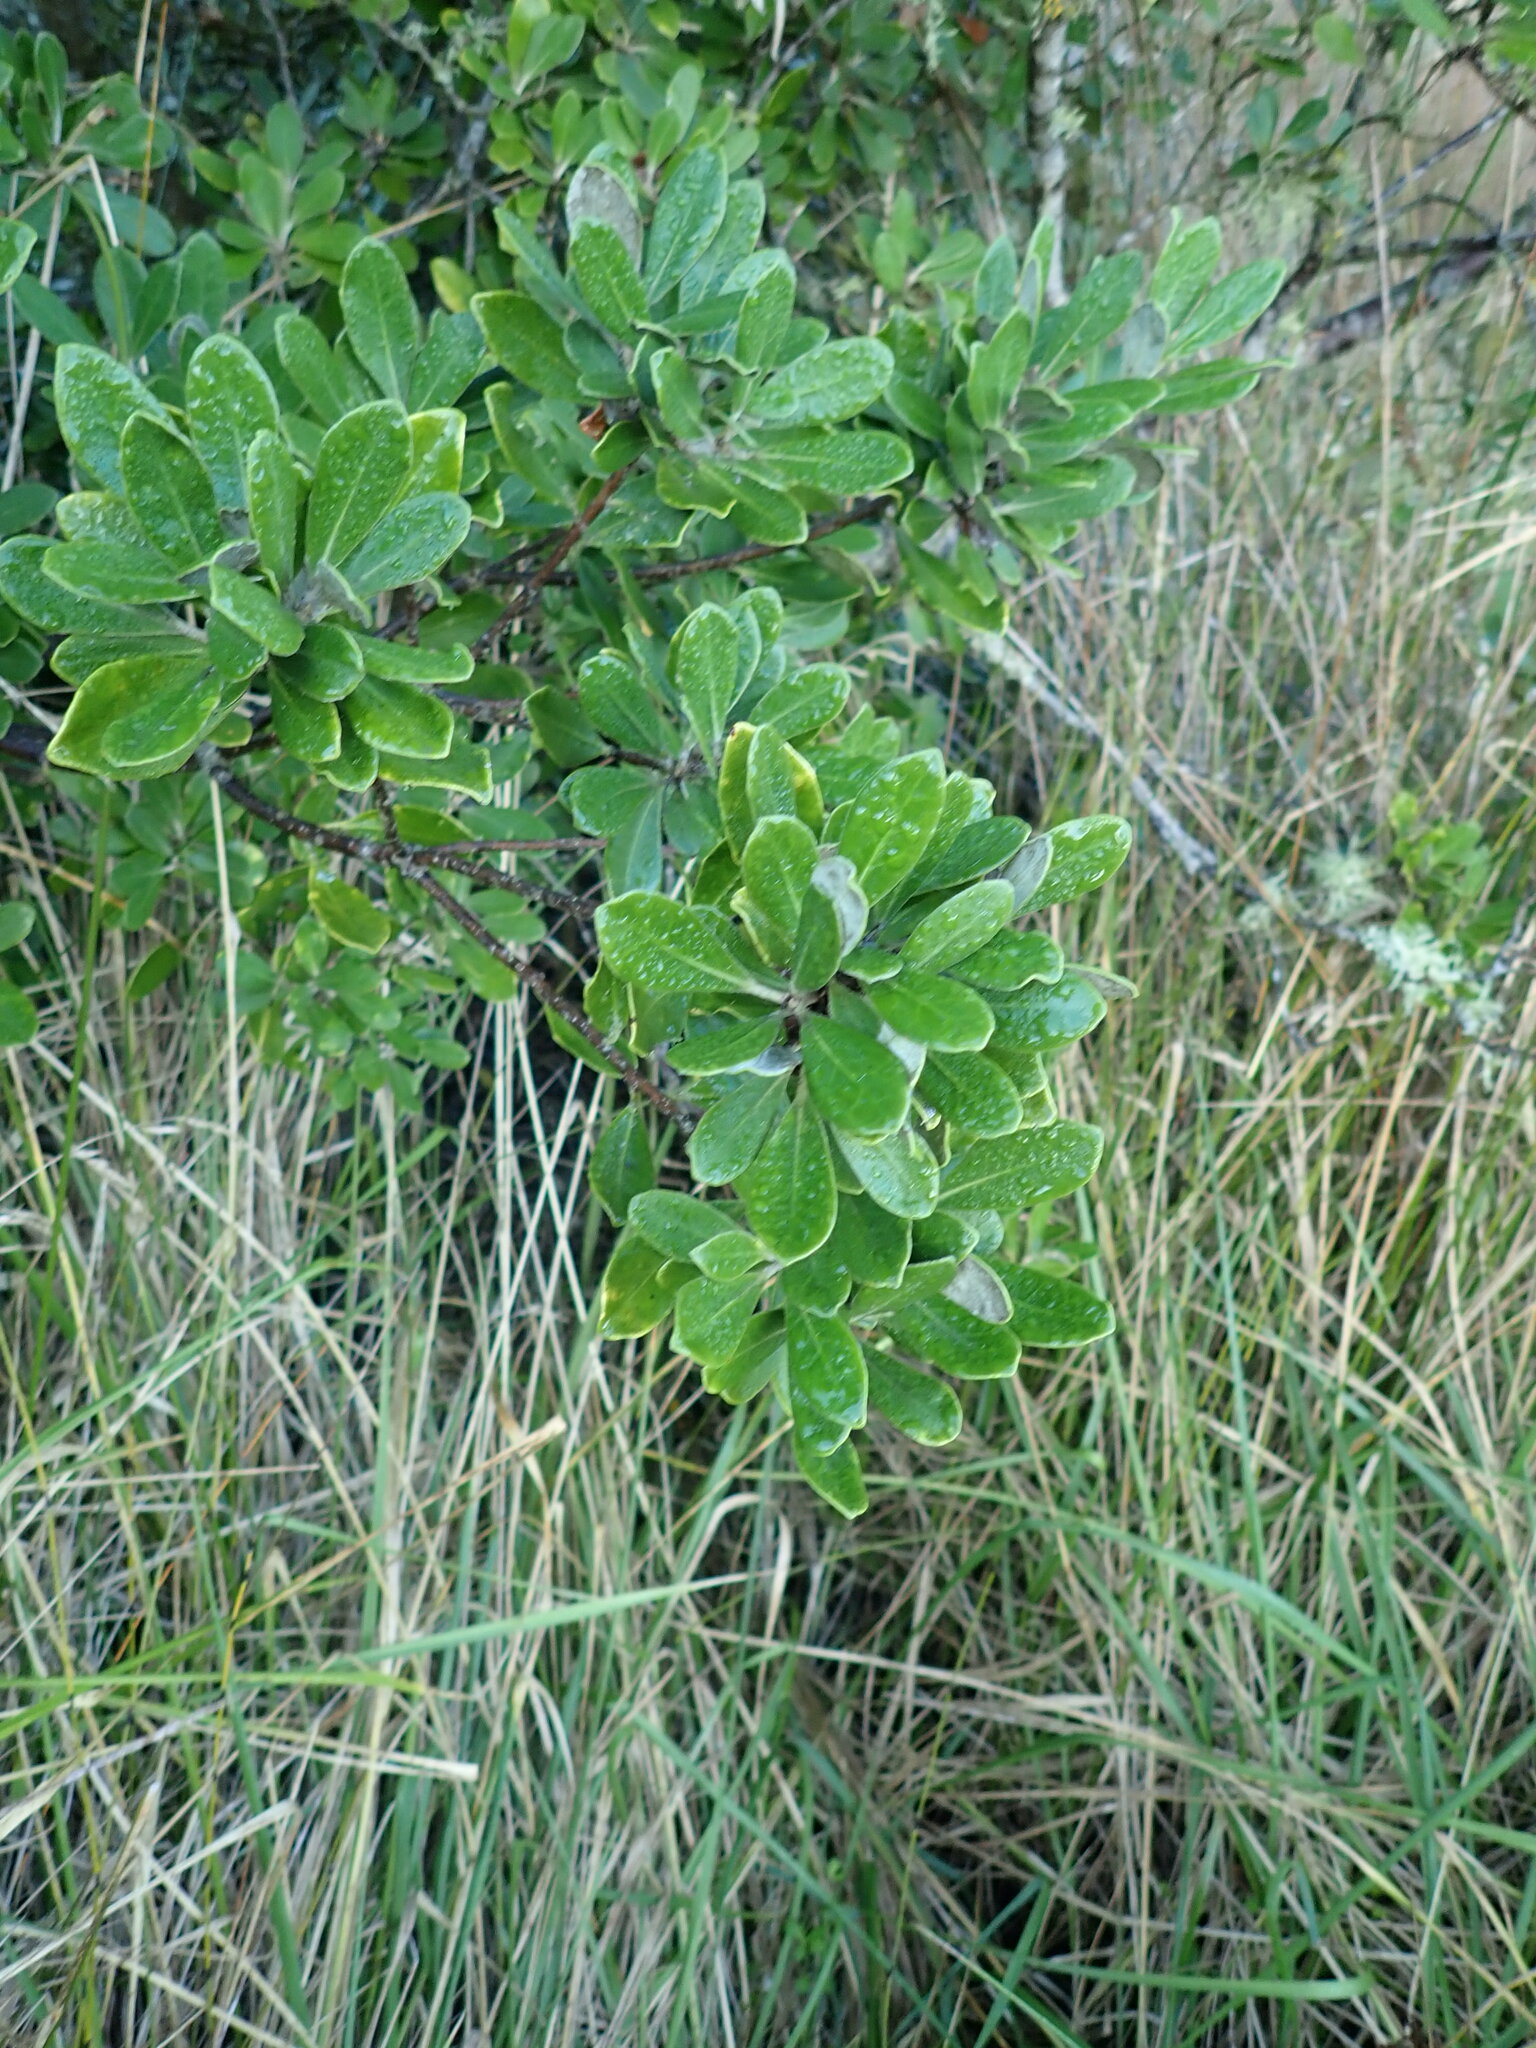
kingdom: Plantae
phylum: Tracheophyta
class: Magnoliopsida
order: Apiales
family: Pittosporaceae
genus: Pittosporum
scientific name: Pittosporum crassifolium
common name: Karo
